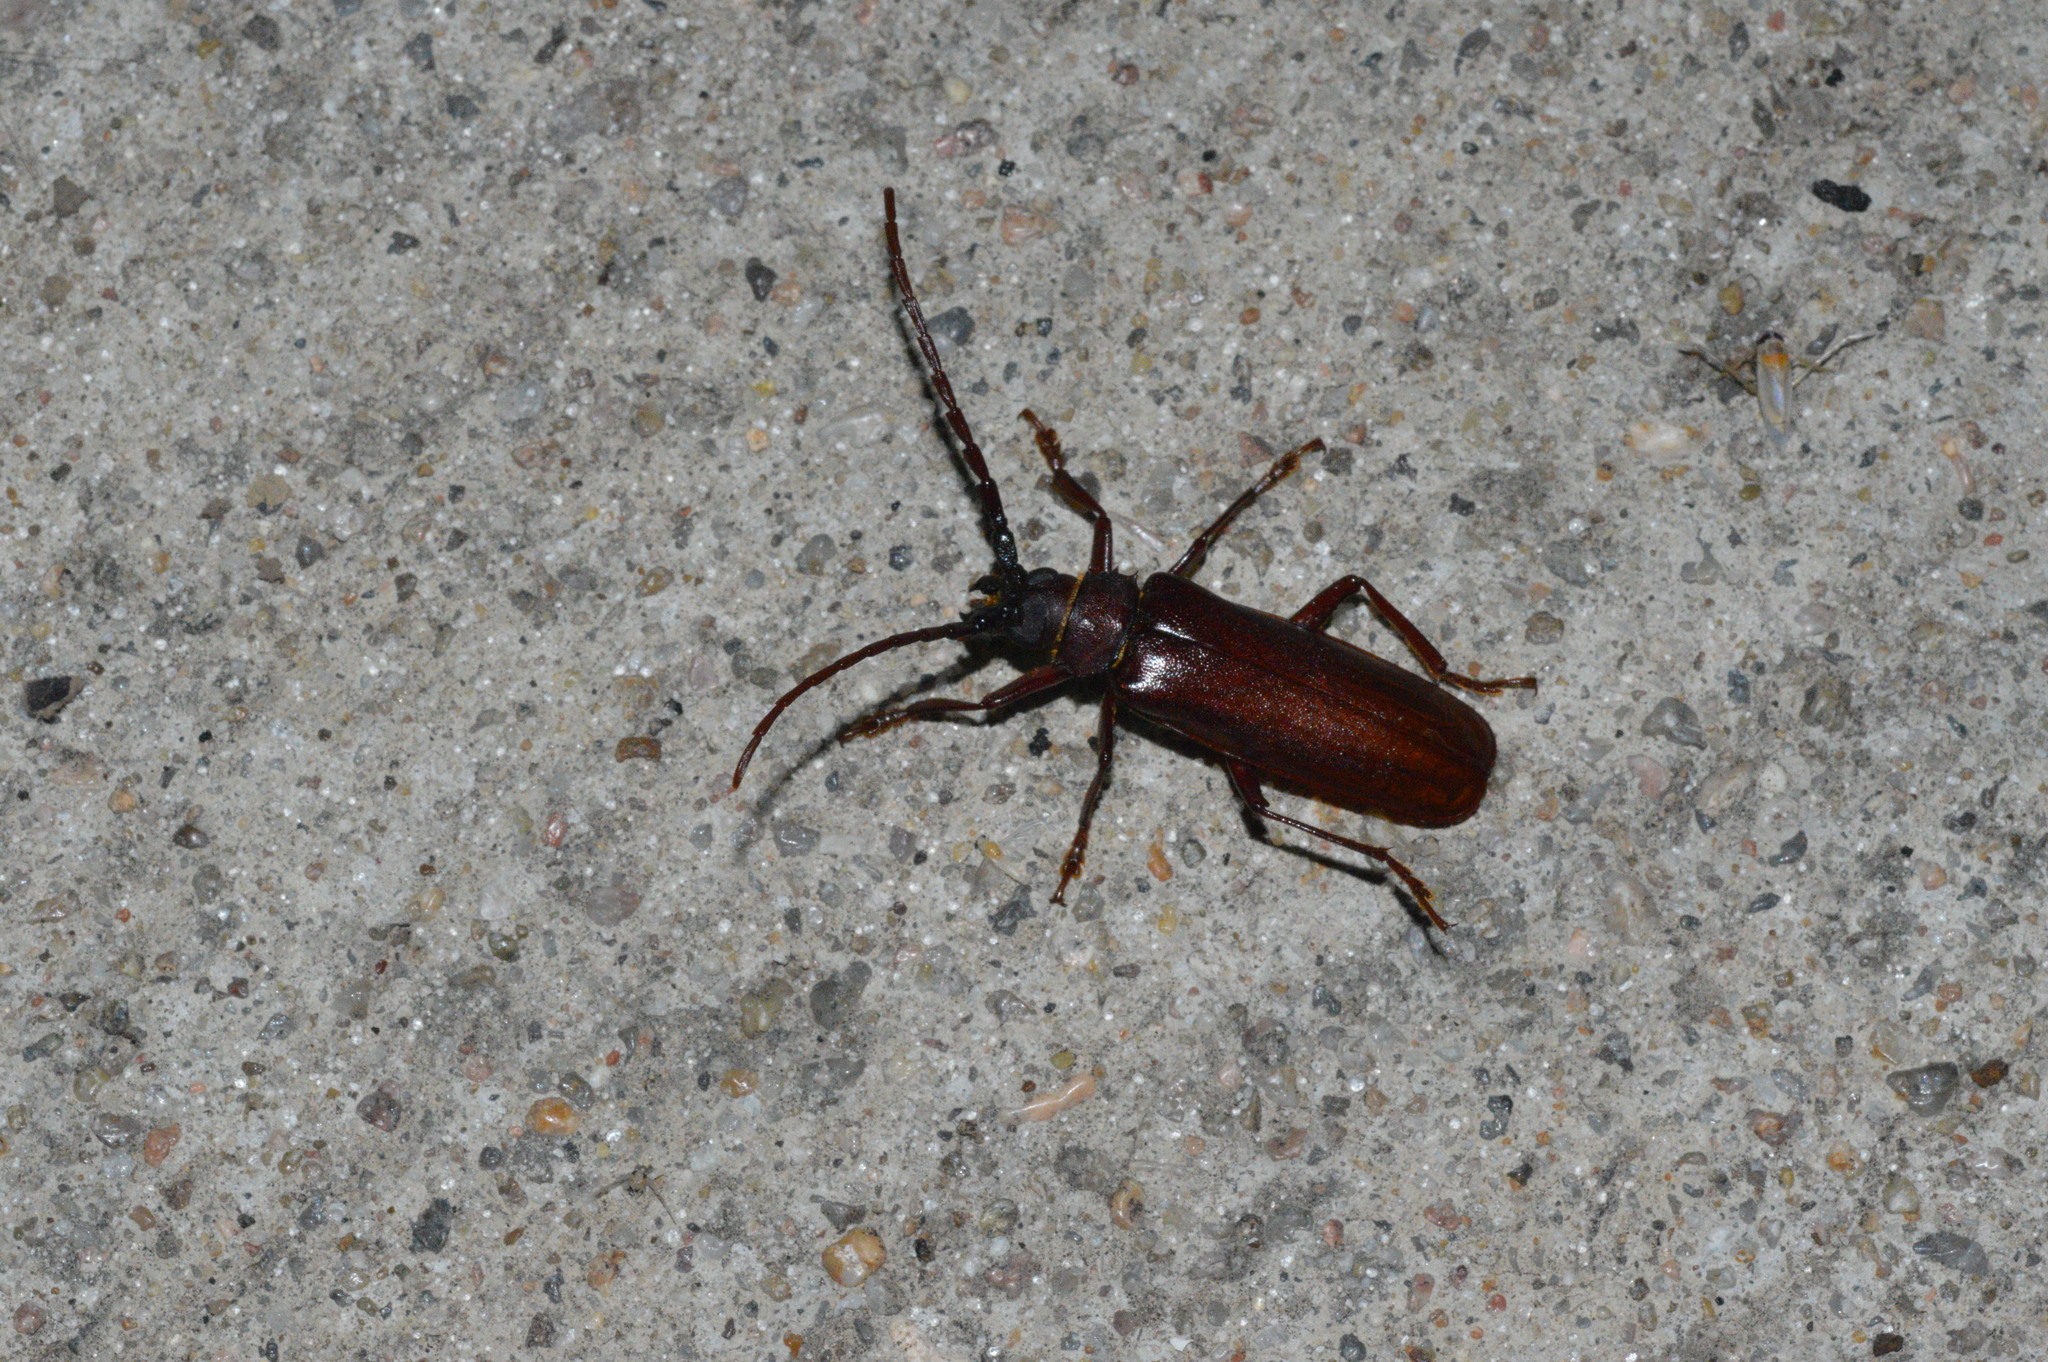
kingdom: Animalia
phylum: Arthropoda
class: Insecta
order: Coleoptera
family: Cerambycidae
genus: Orthosoma
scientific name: Orthosoma brunneum
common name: Brown prionid beetle
